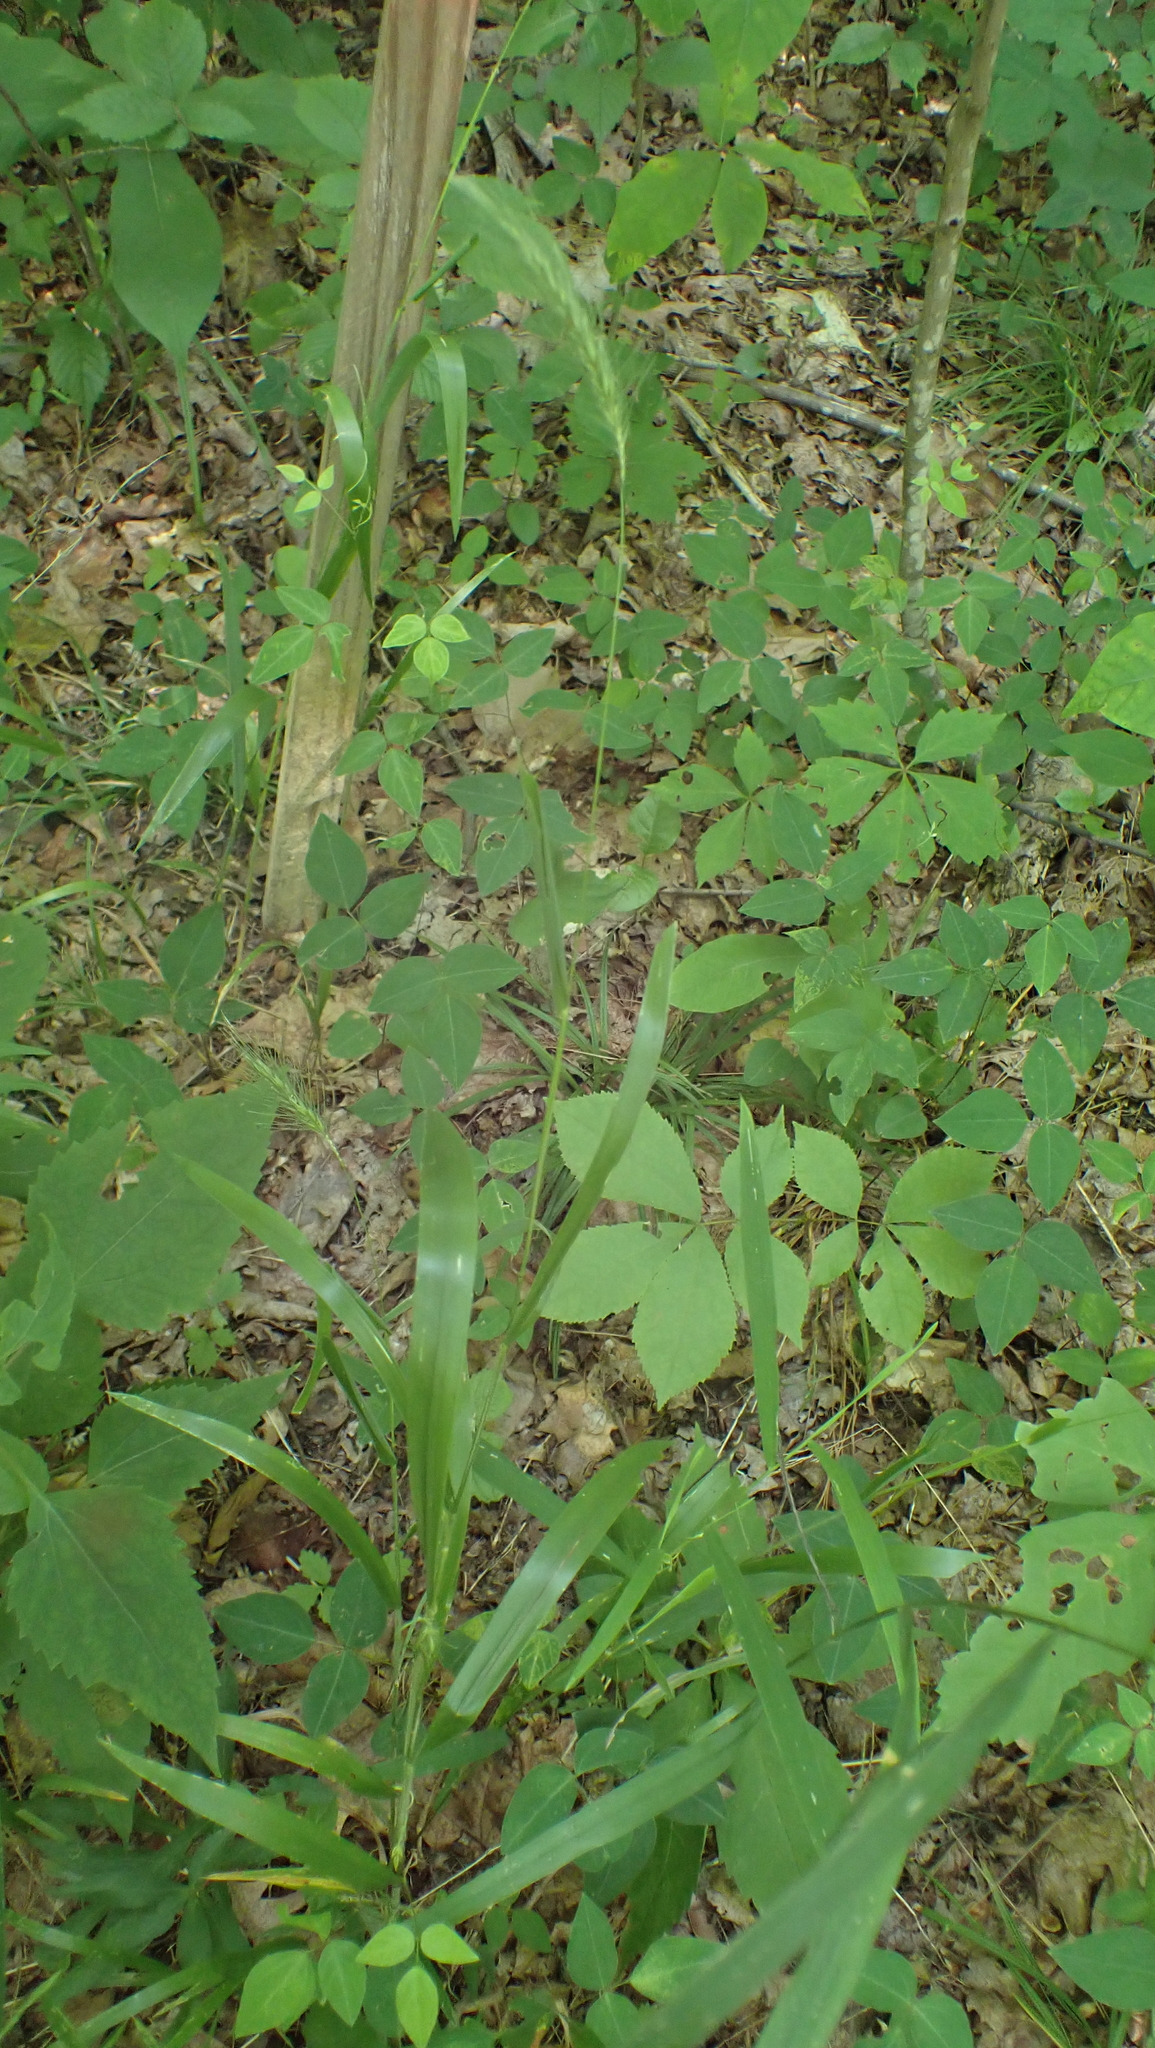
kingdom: Plantae
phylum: Tracheophyta
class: Liliopsida
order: Poales
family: Poaceae
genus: Elymus
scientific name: Elymus villosus
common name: Downy wild rye
